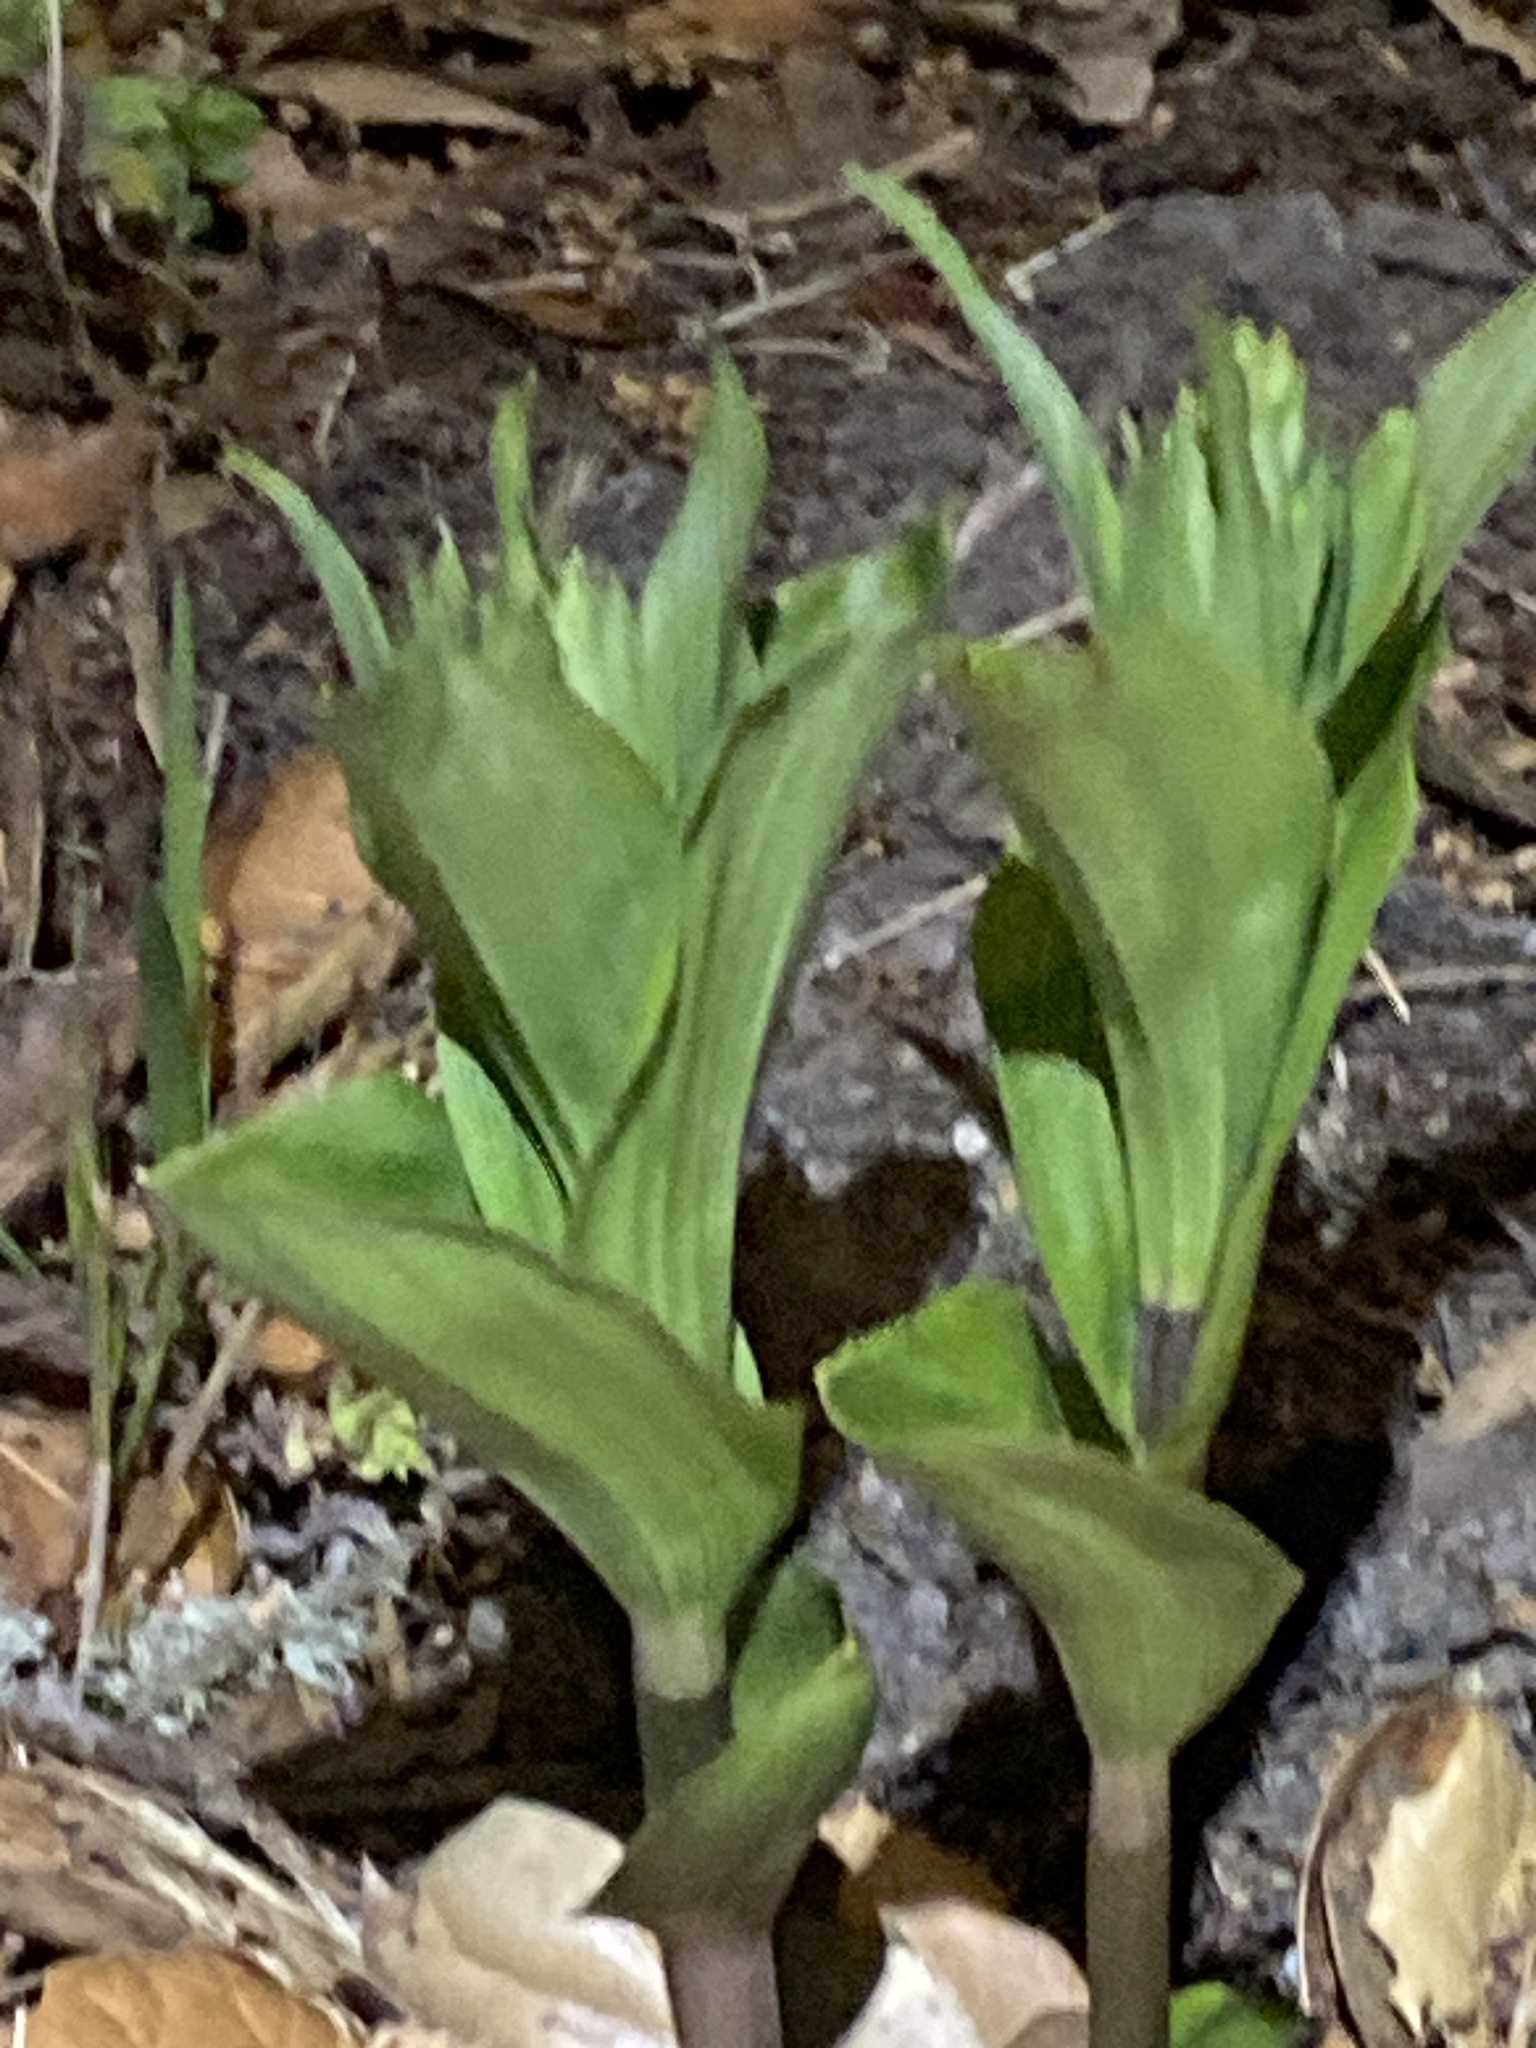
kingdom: Plantae
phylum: Tracheophyta
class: Liliopsida
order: Asparagales
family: Orchidaceae
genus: Epipactis
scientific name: Epipactis helleborine
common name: Broad-leaved helleborine
